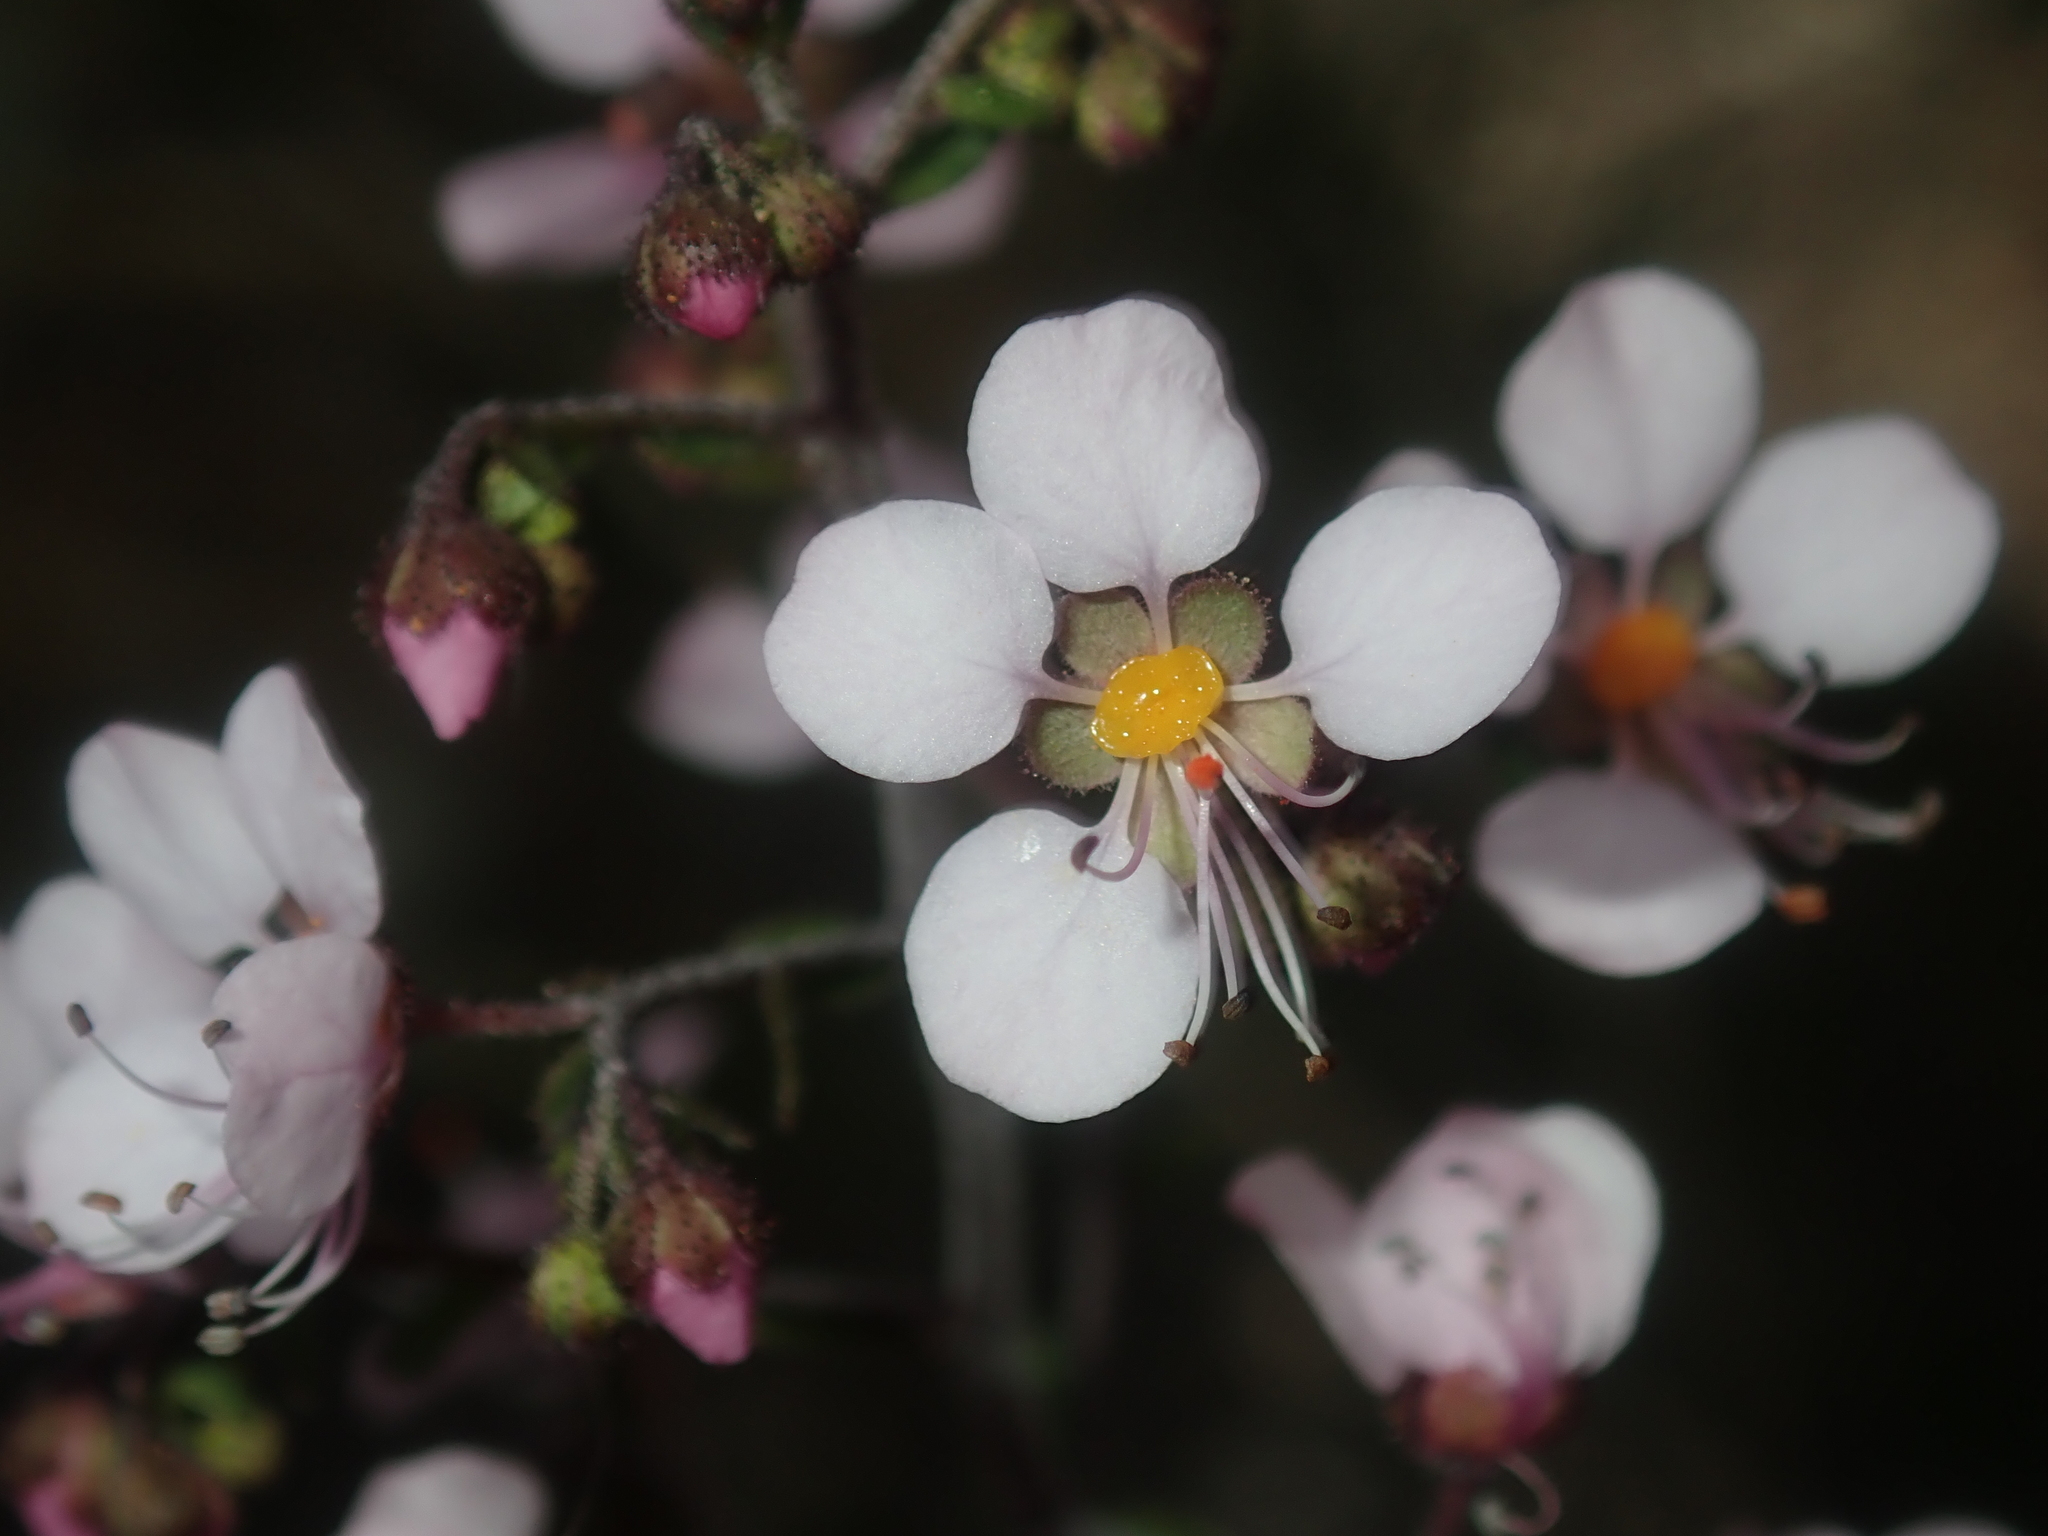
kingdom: Plantae
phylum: Tracheophyta
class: Magnoliopsida
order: Sapindales
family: Sapindaceae
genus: Diplopeltis
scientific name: Diplopeltis huegelii
